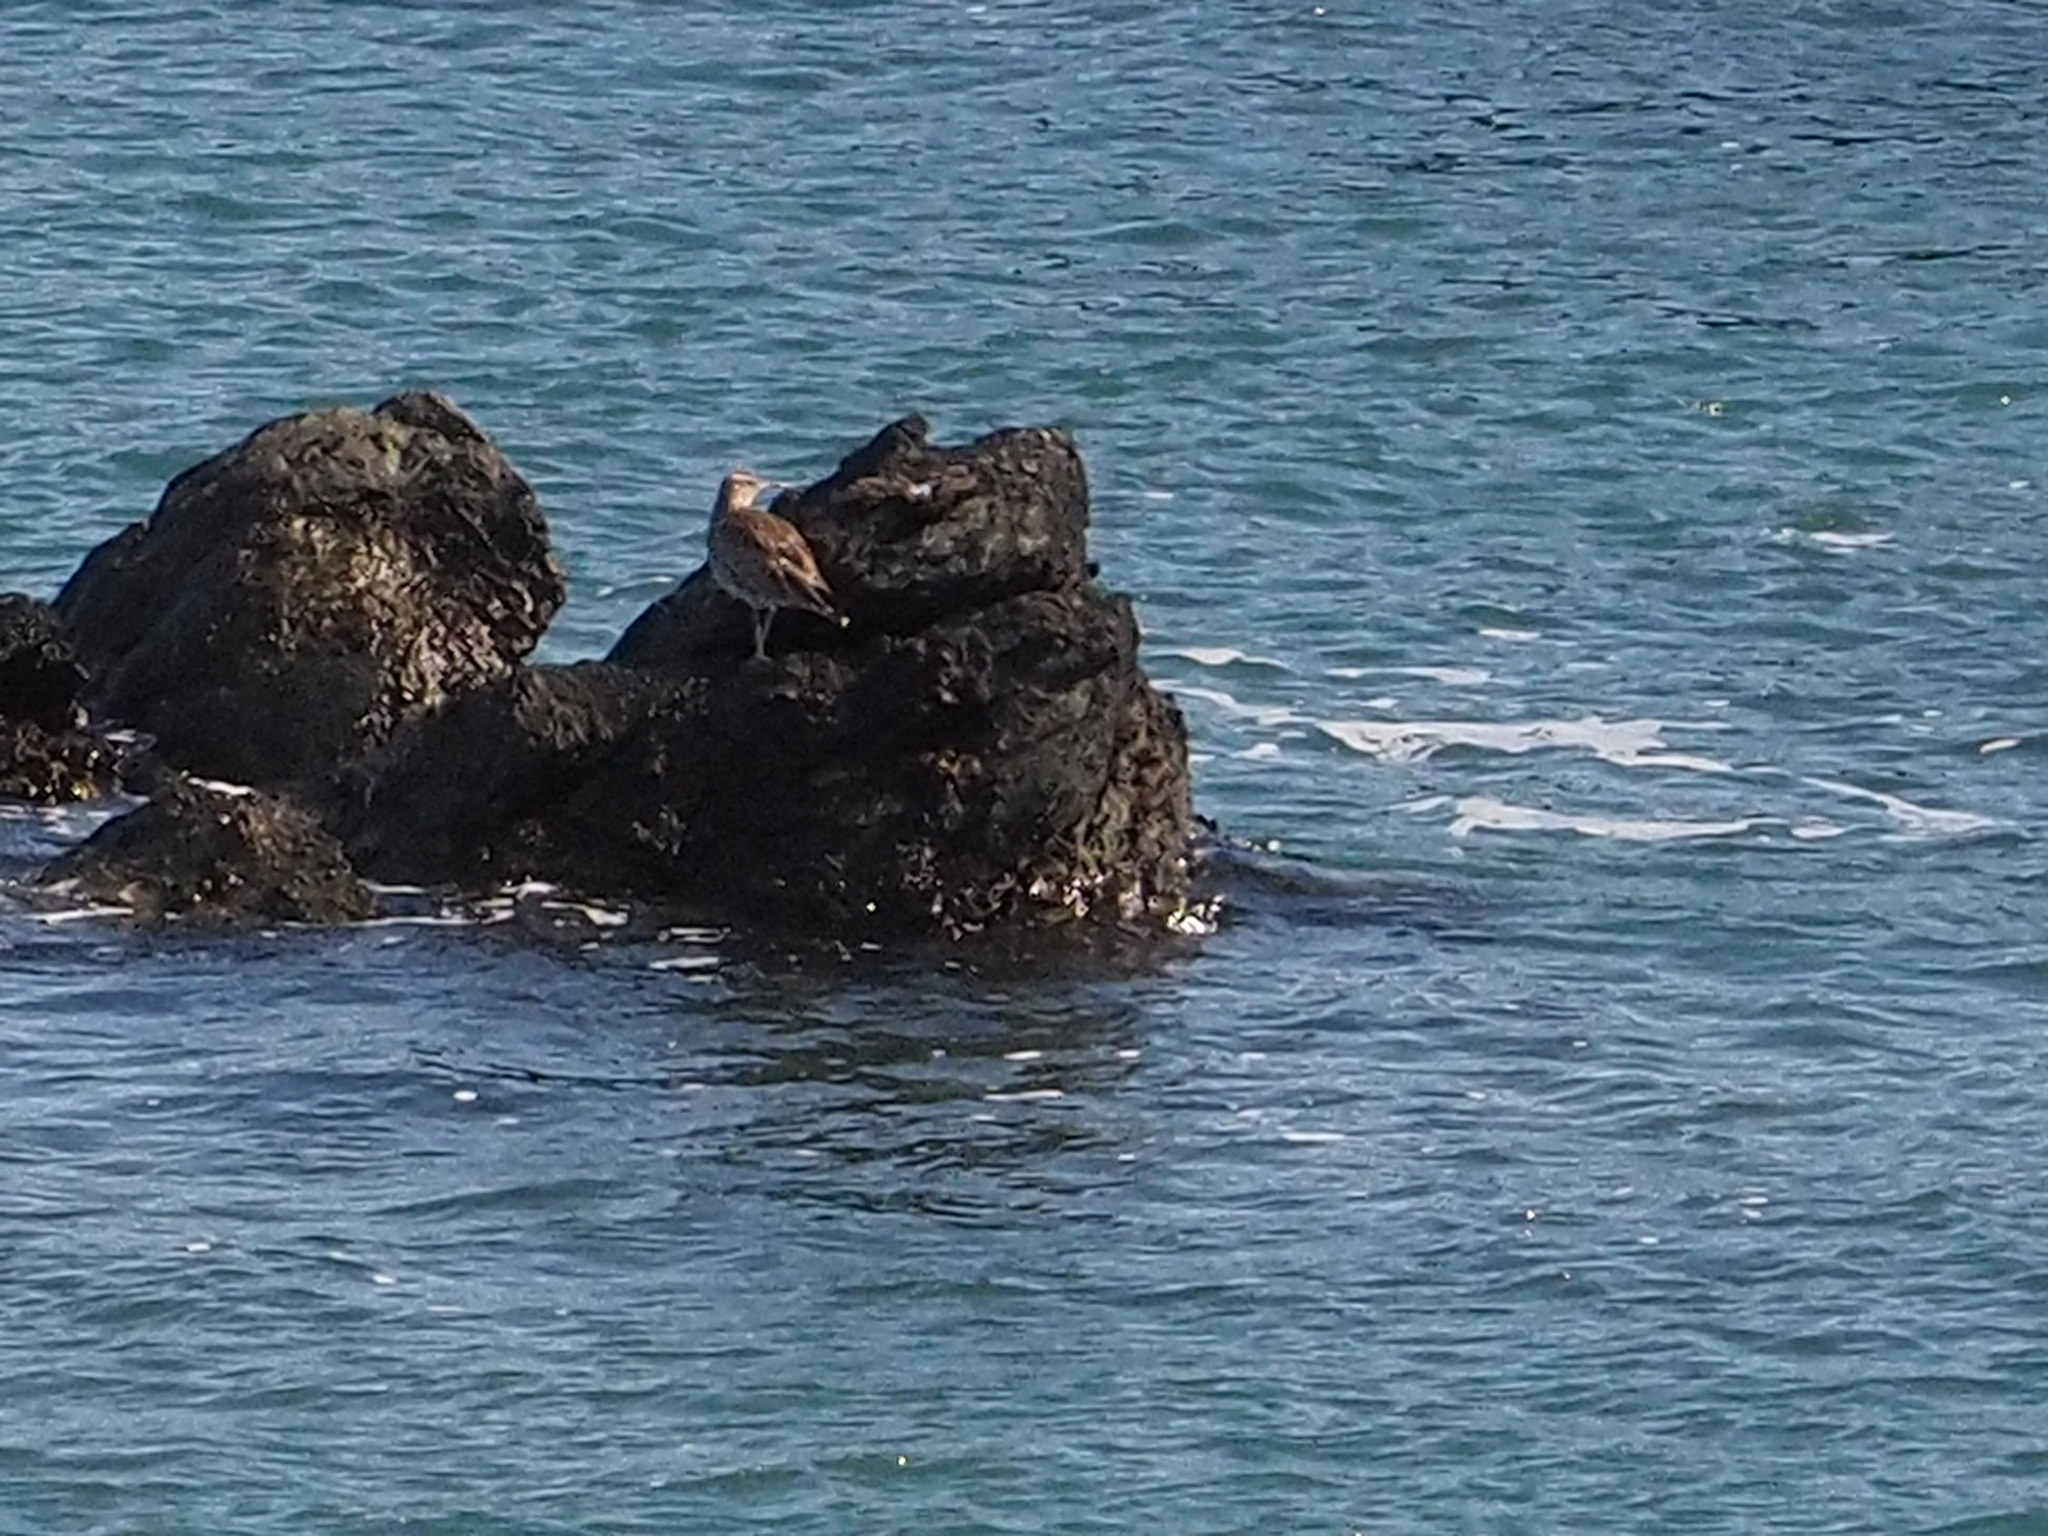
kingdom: Animalia
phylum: Chordata
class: Aves
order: Charadriiformes
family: Scolopacidae
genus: Numenius
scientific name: Numenius phaeopus
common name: Whimbrel
